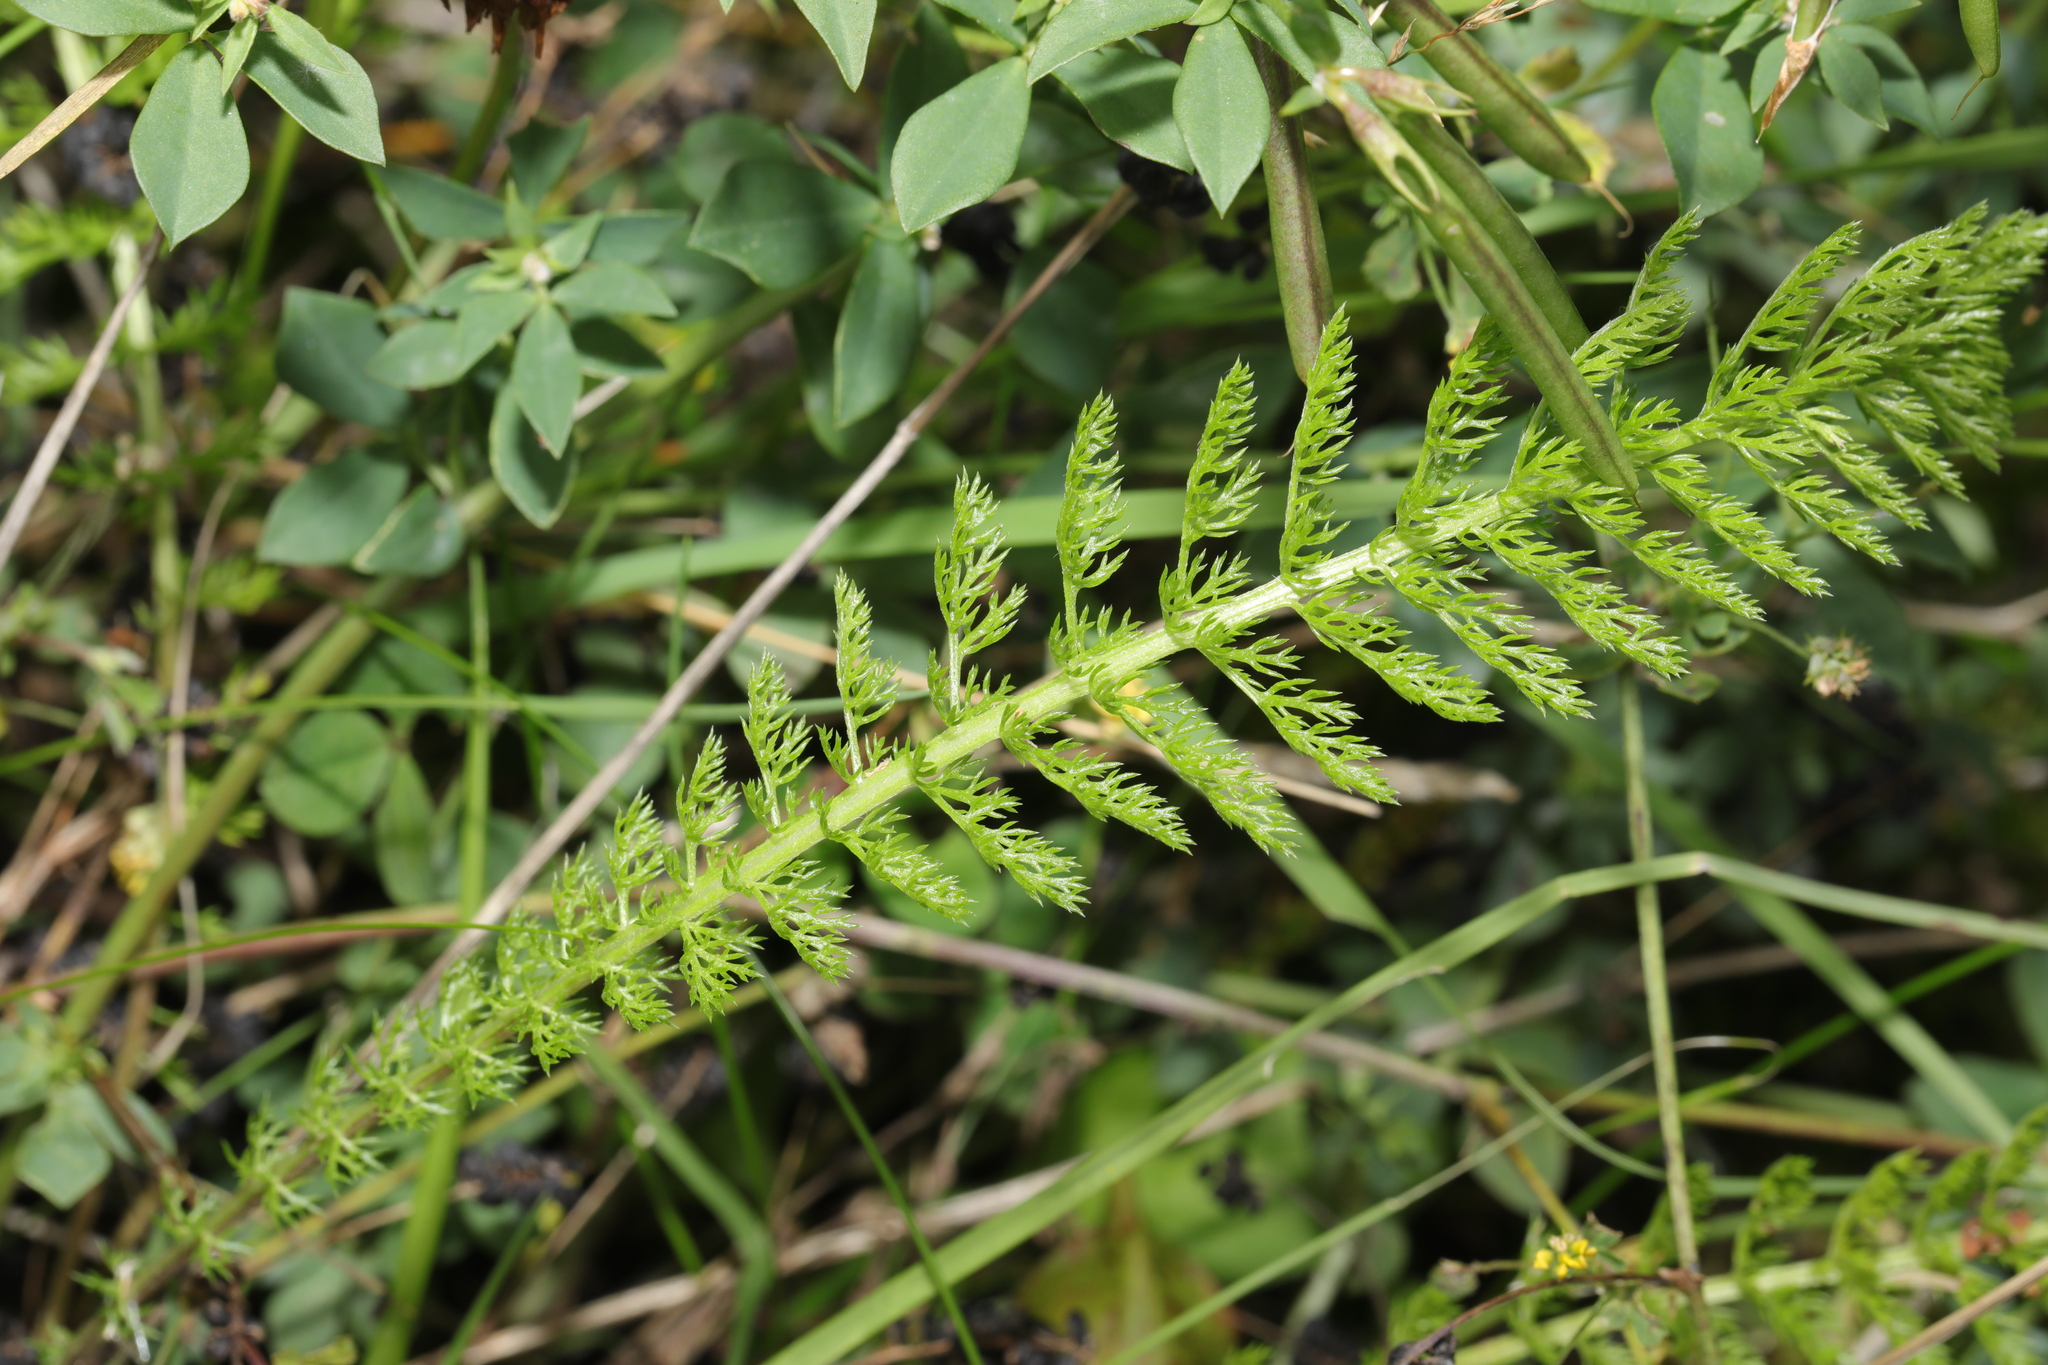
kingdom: Plantae
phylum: Tracheophyta
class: Magnoliopsida
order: Asterales
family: Asteraceae
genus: Achillea
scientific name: Achillea millefolium
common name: Yarrow
